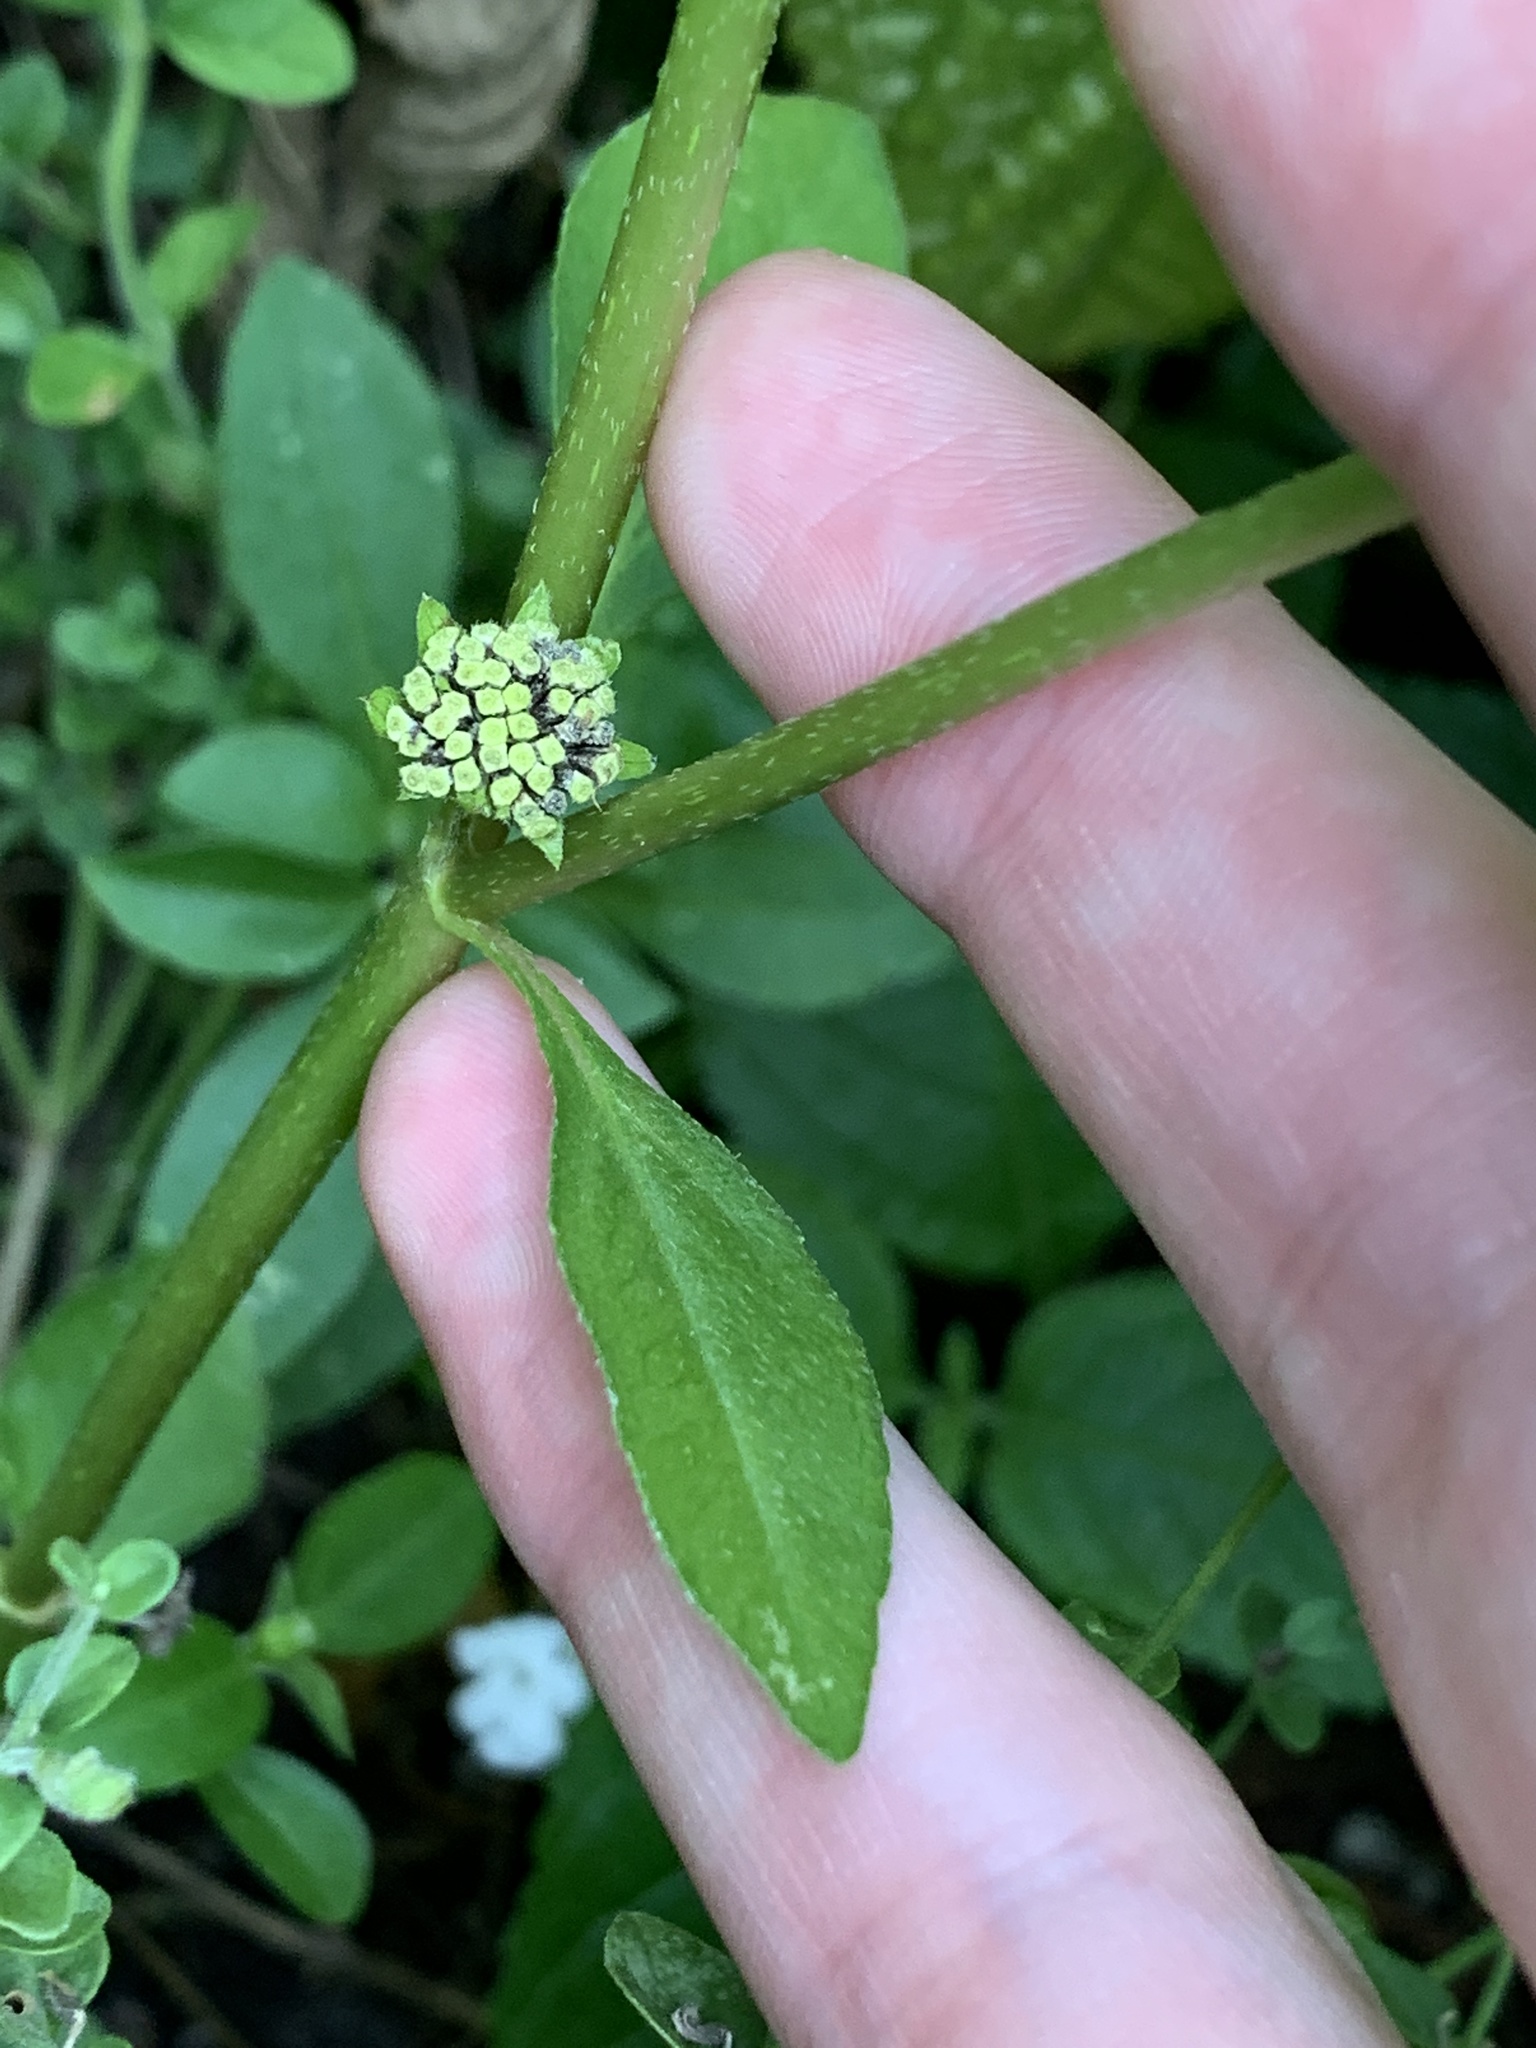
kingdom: Plantae
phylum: Tracheophyta
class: Magnoliopsida
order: Asterales
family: Asteraceae
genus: Eclipta
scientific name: Eclipta prostrata
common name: False daisy
